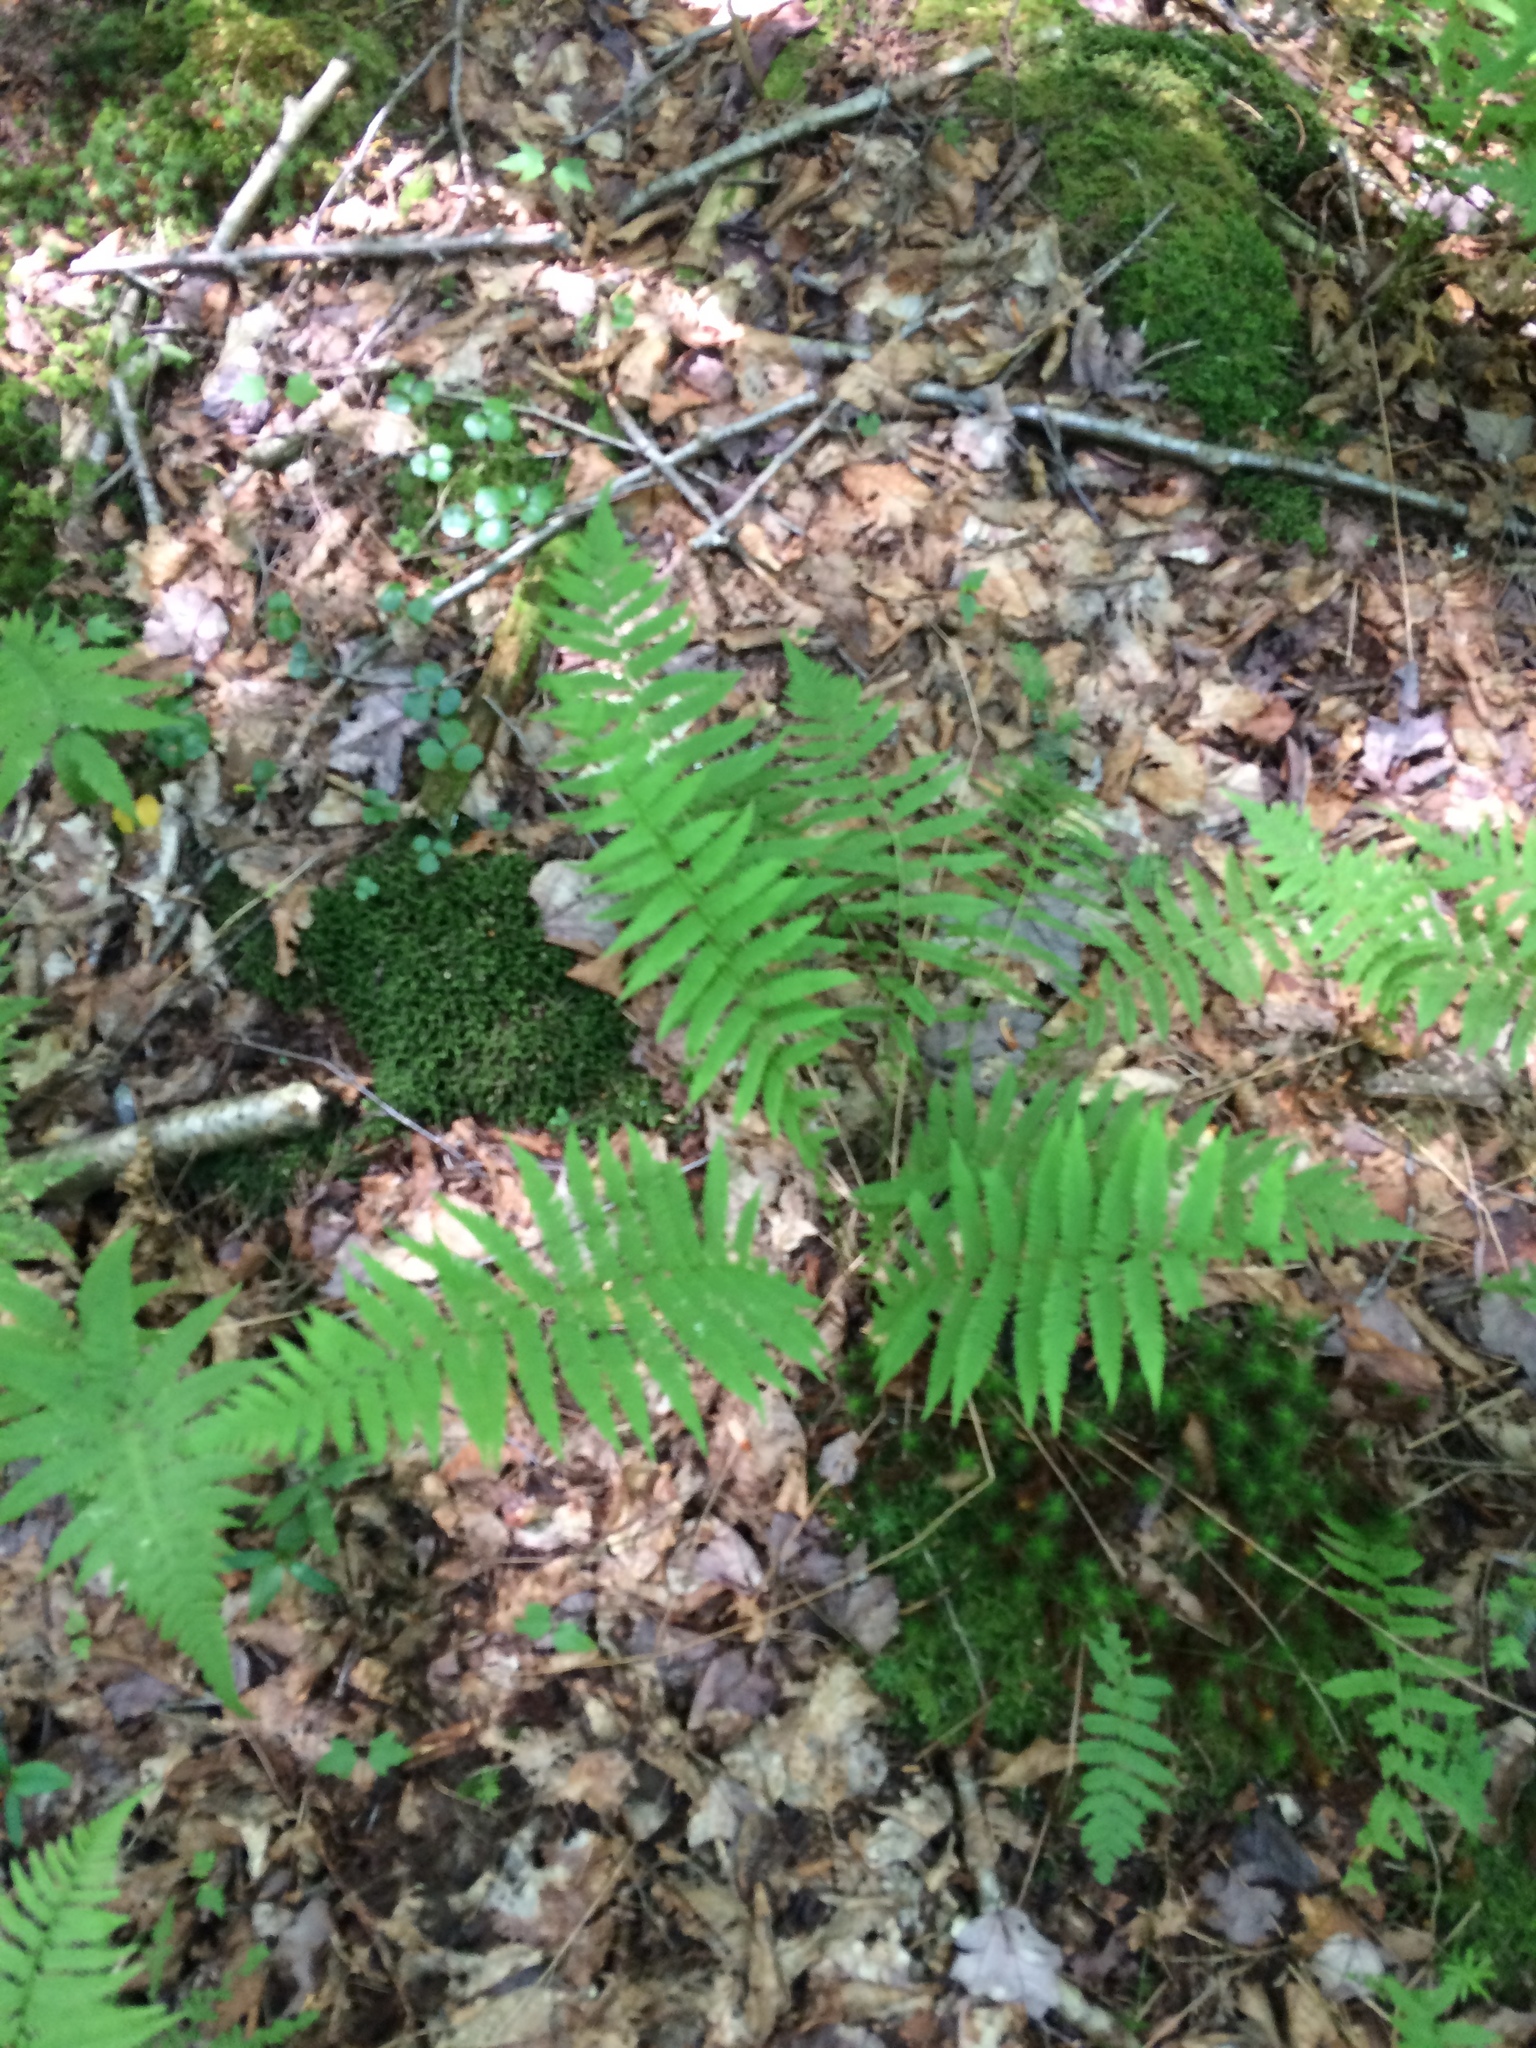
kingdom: Plantae
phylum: Tracheophyta
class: Polypodiopsida
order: Polypodiales
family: Thelypteridaceae
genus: Amauropelta
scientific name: Amauropelta noveboracensis
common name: New york fern
